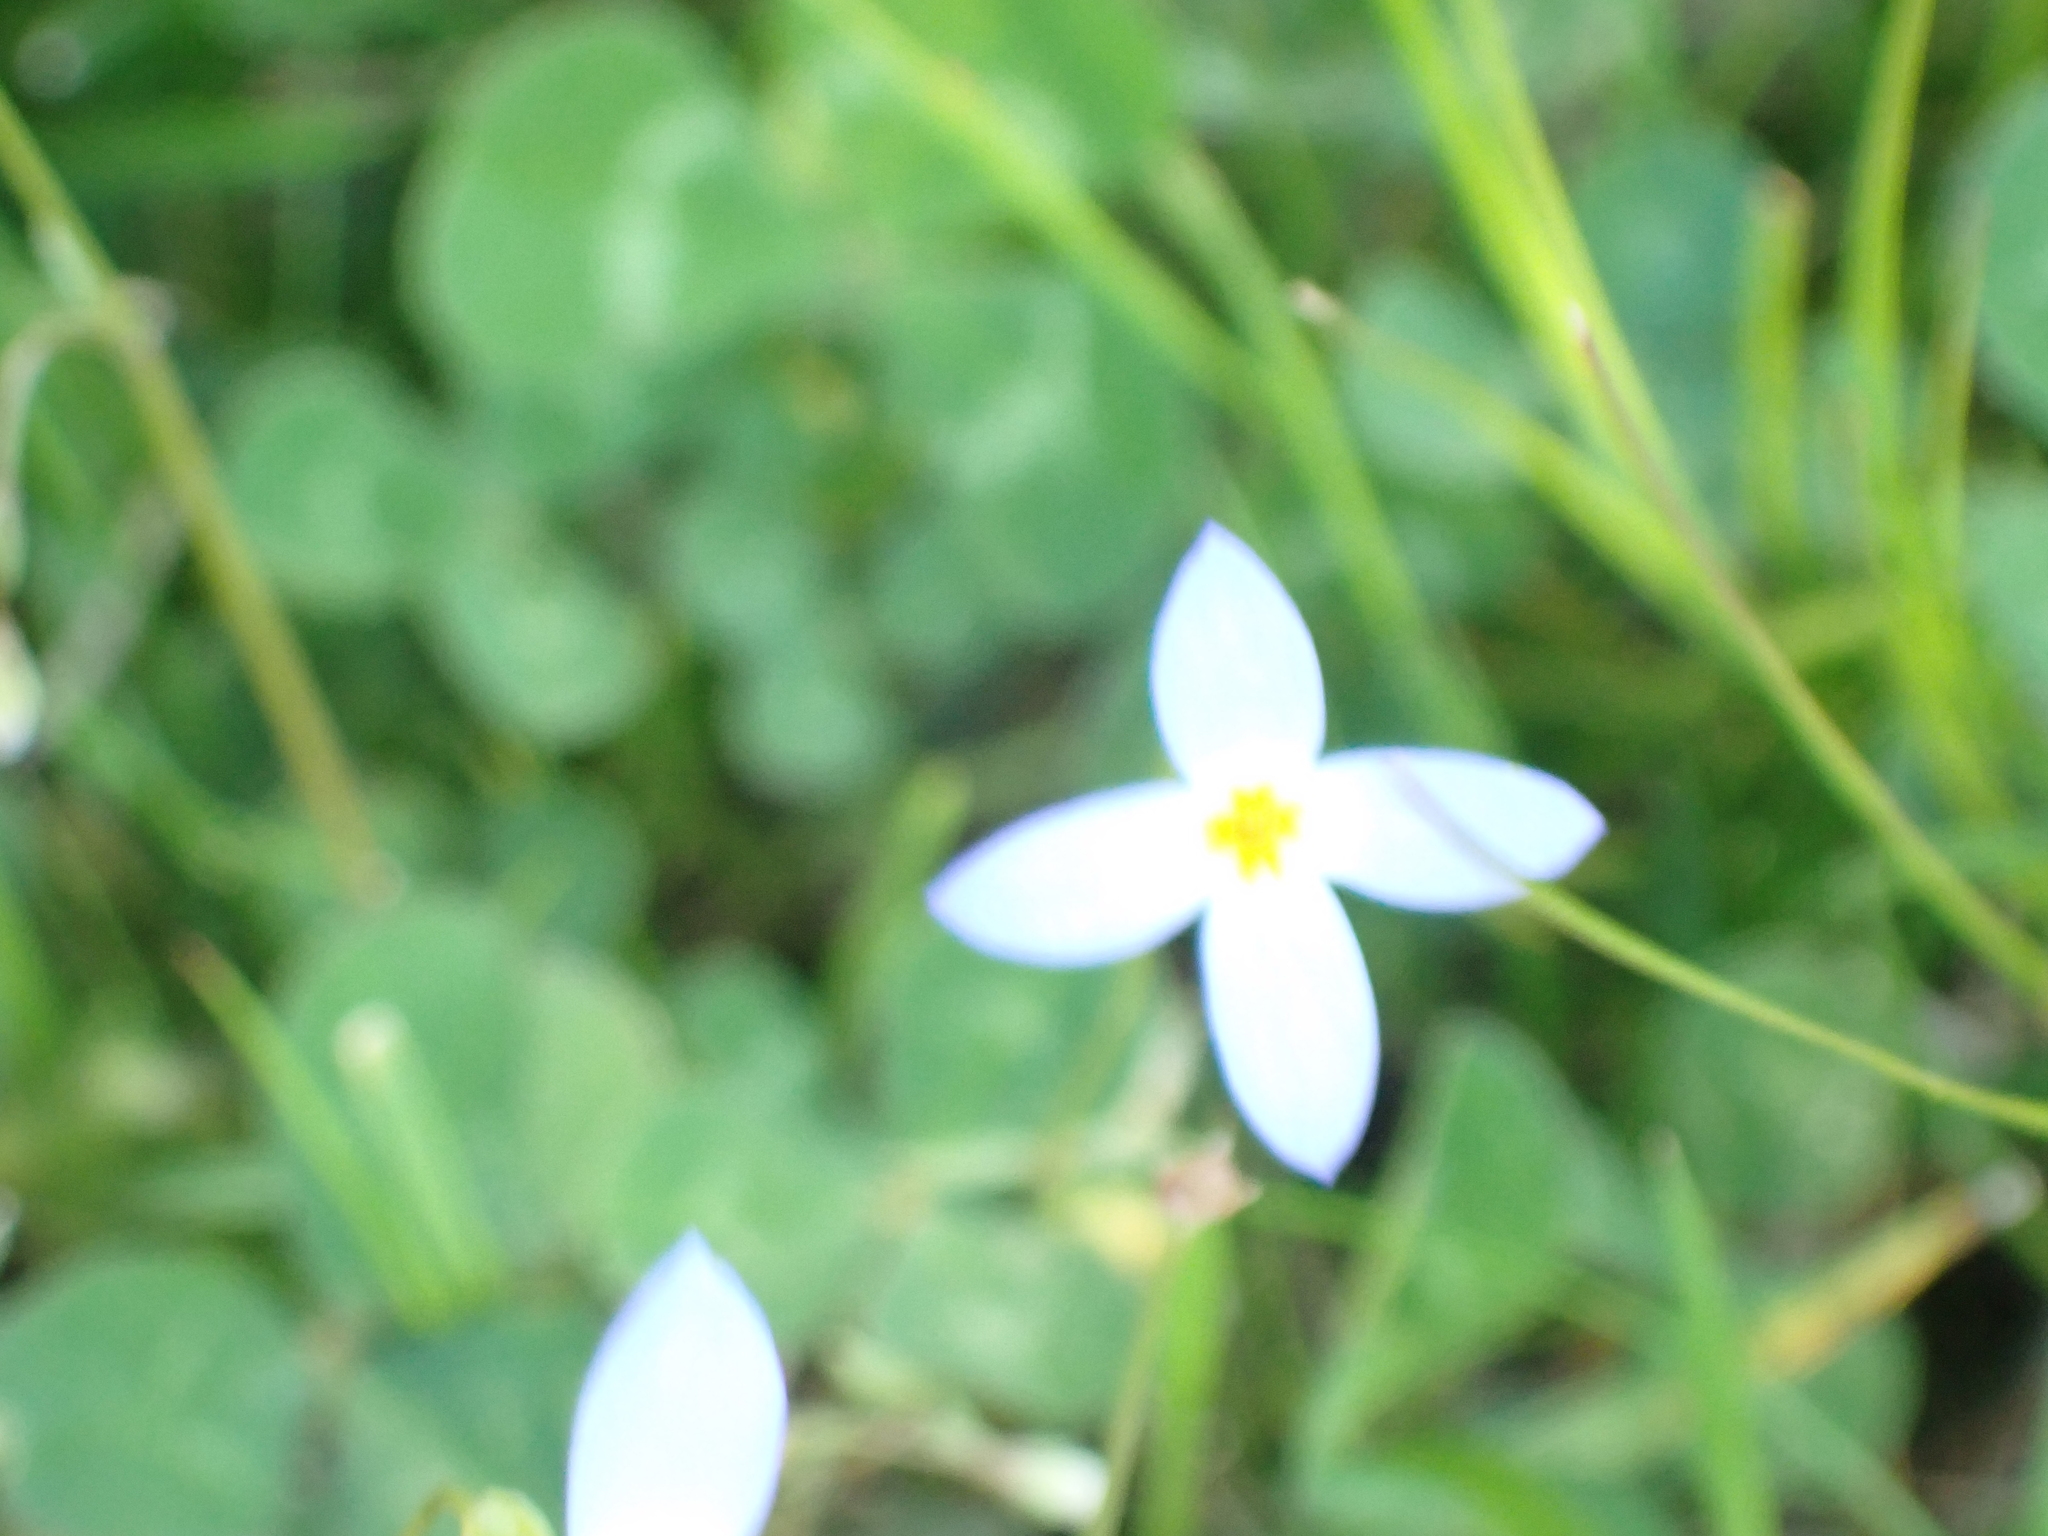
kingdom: Plantae
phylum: Tracheophyta
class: Magnoliopsida
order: Gentianales
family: Rubiaceae
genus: Houstonia
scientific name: Houstonia caerulea
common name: Bluets
